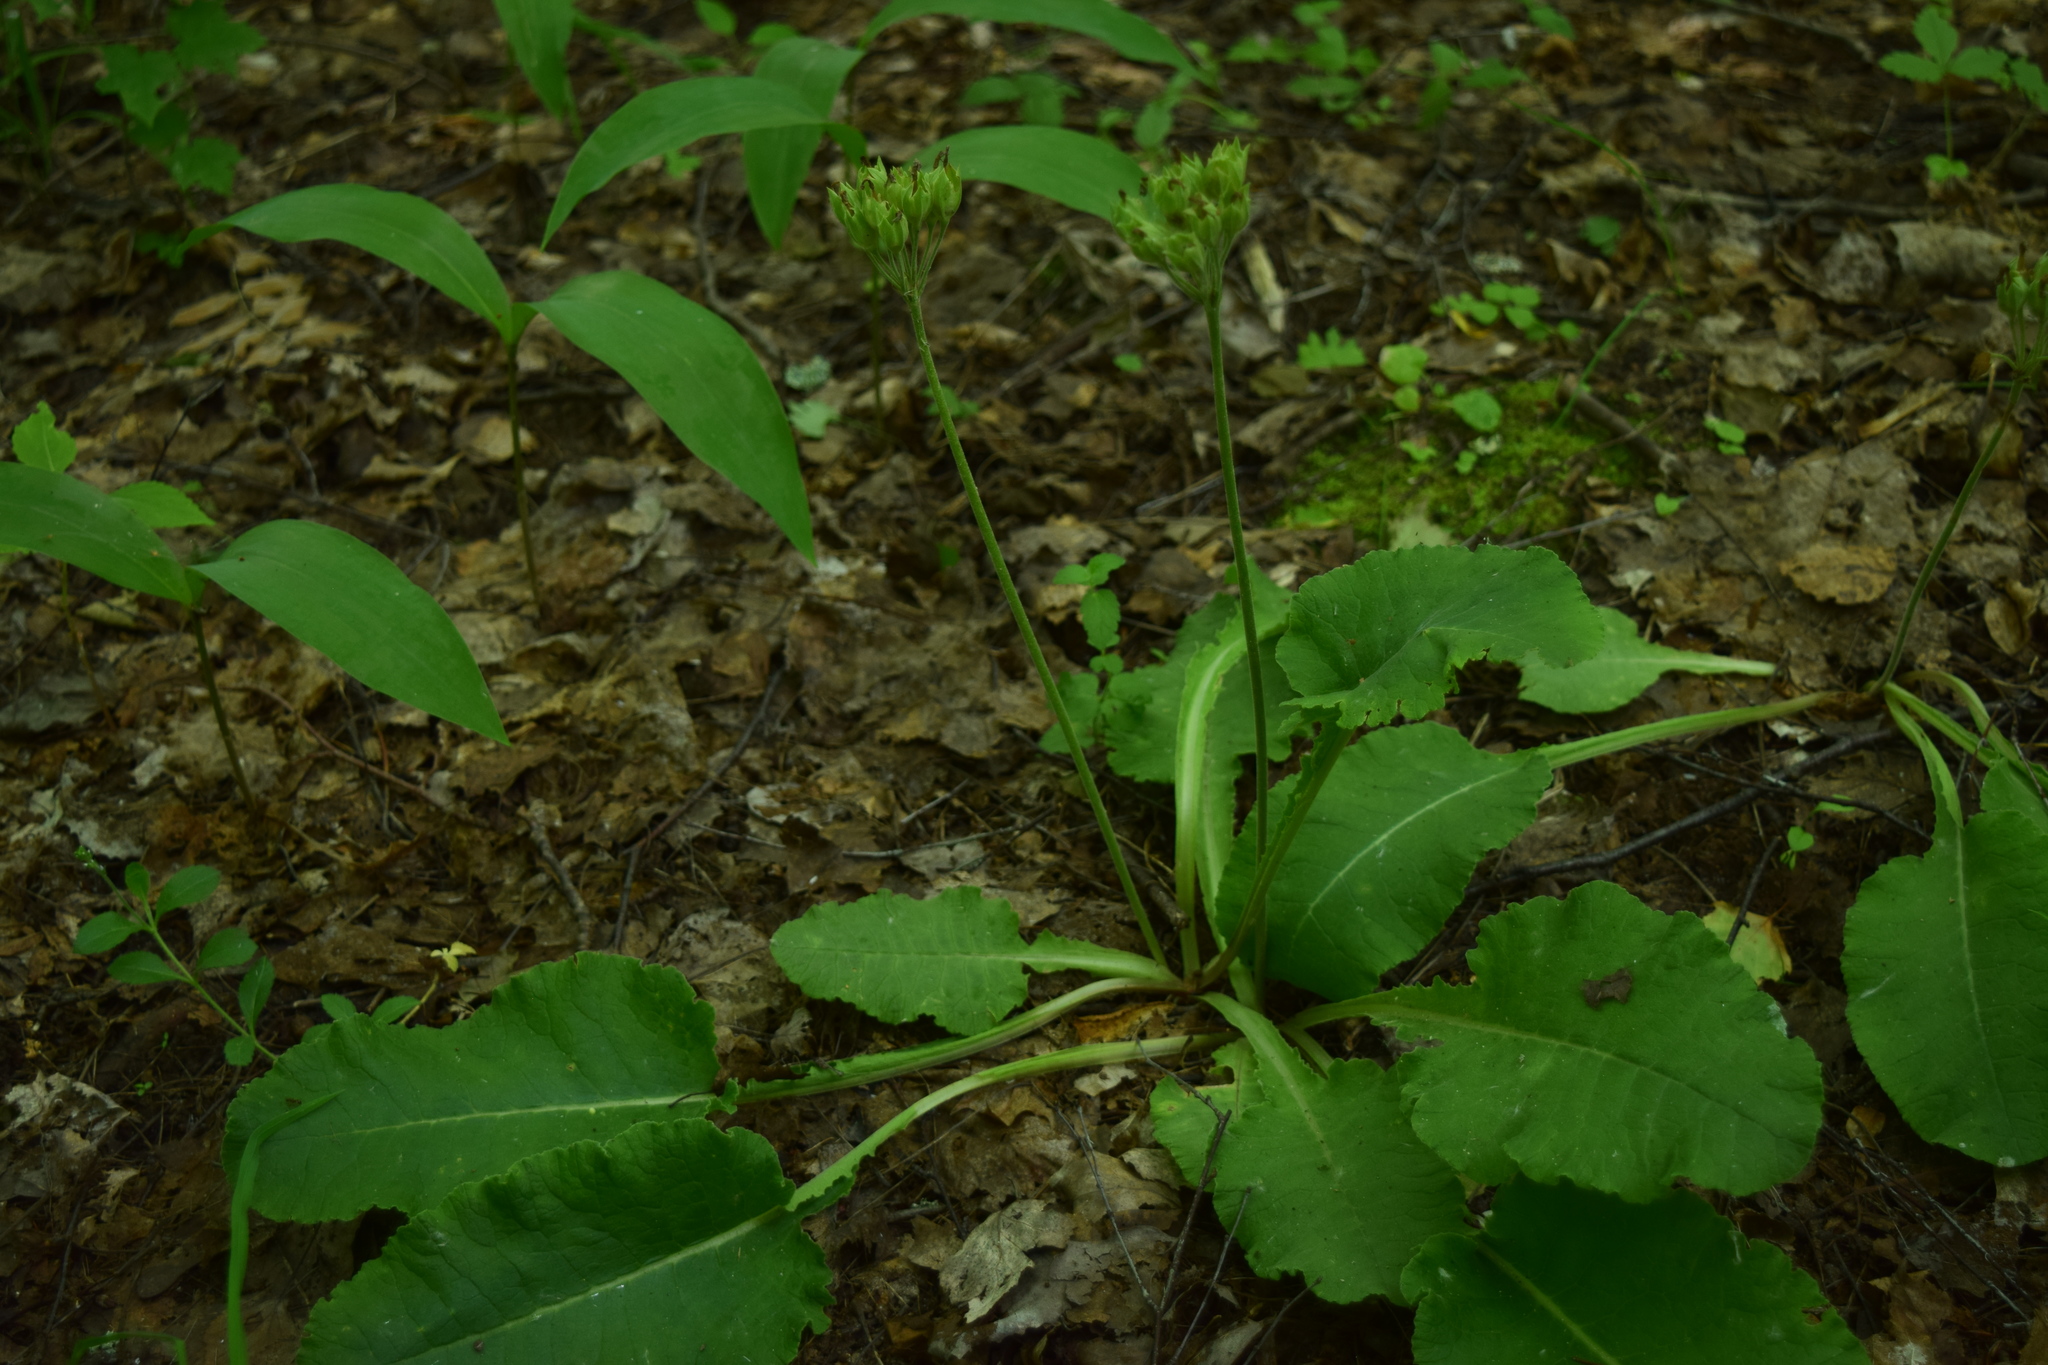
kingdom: Plantae
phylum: Tracheophyta
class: Magnoliopsida
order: Ericales
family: Primulaceae
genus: Primula
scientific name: Primula veris
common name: Cowslip
